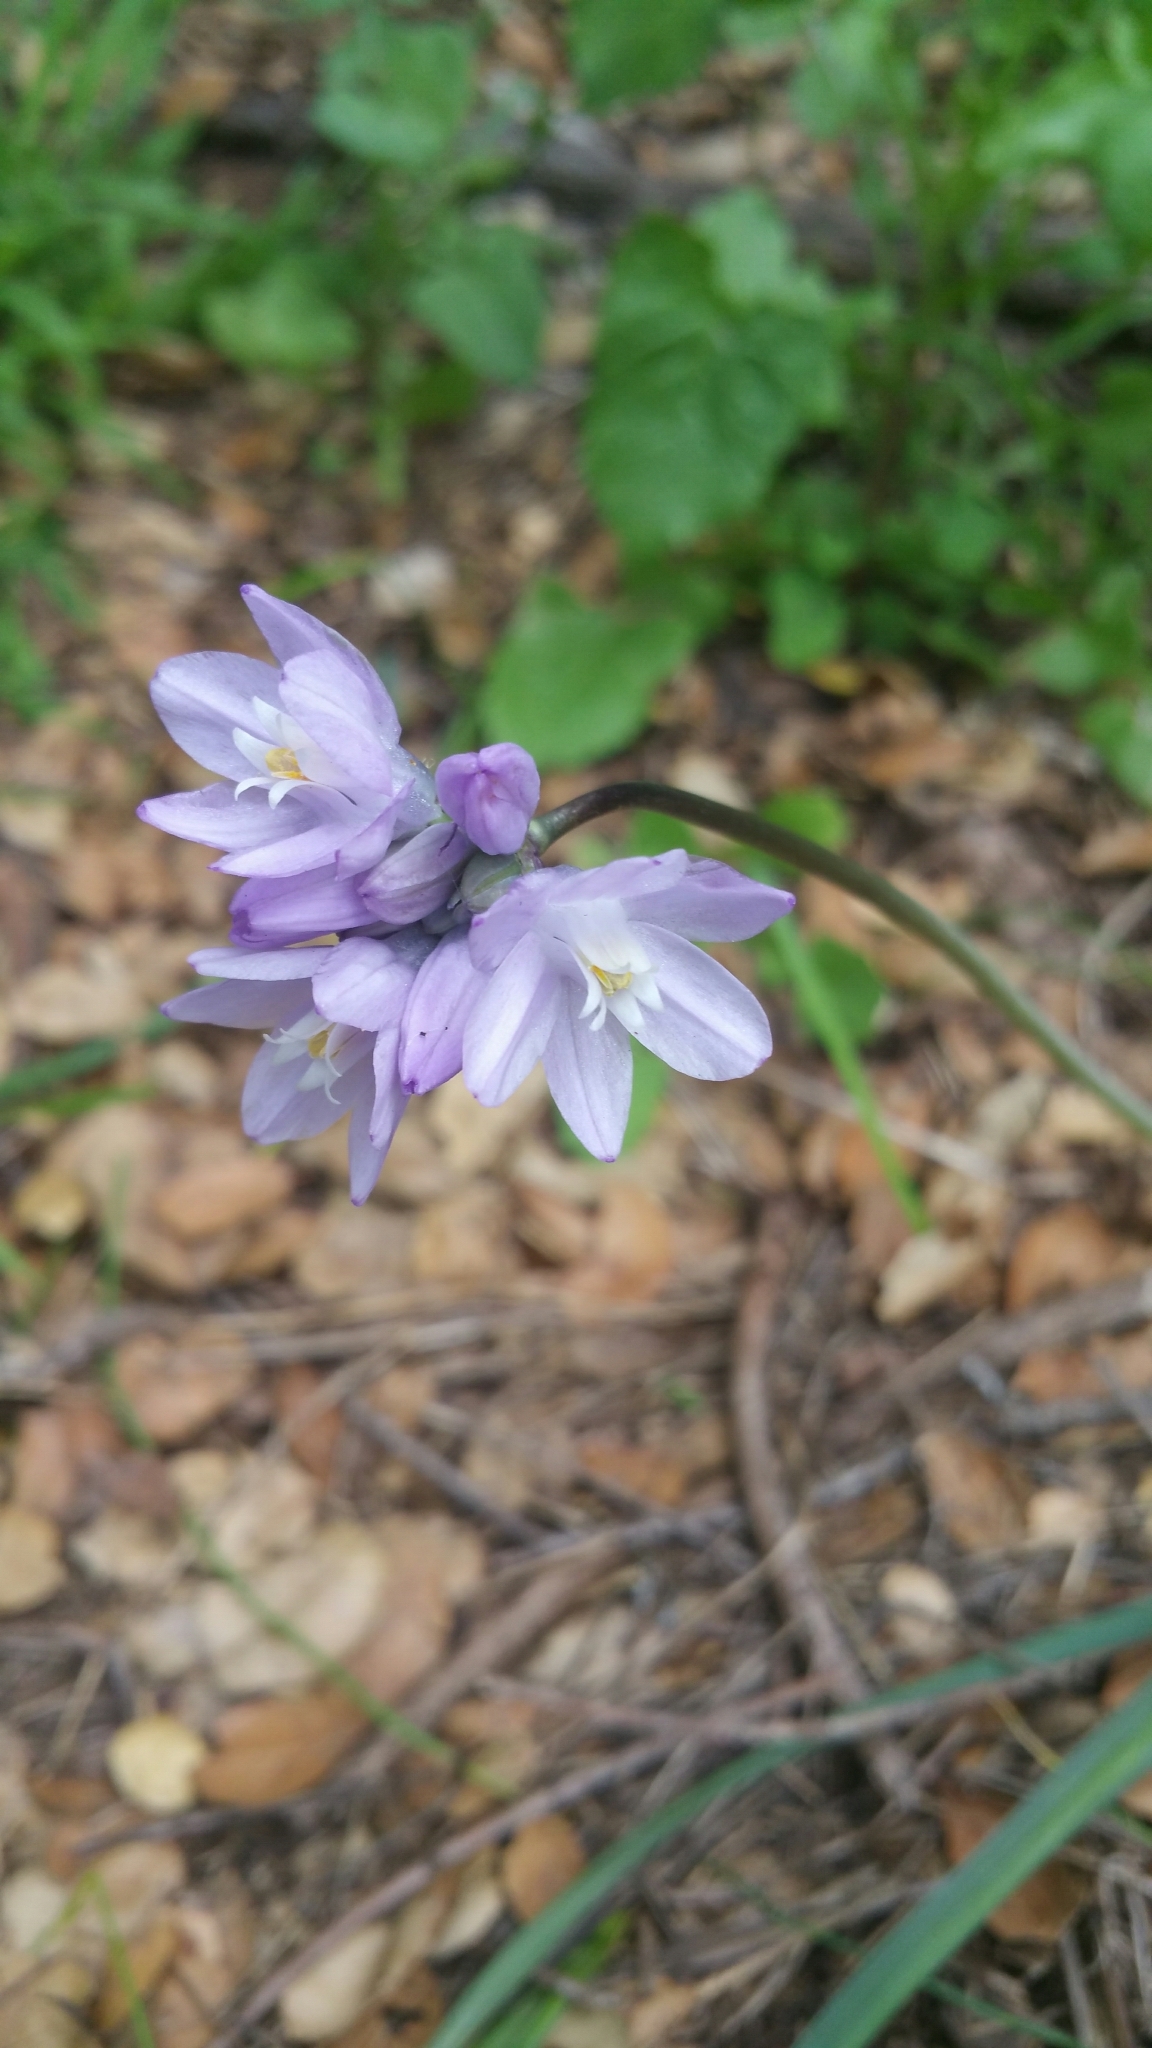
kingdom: Plantae
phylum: Tracheophyta
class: Liliopsida
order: Asparagales
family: Asparagaceae
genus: Dipterostemon
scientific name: Dipterostemon capitatus
